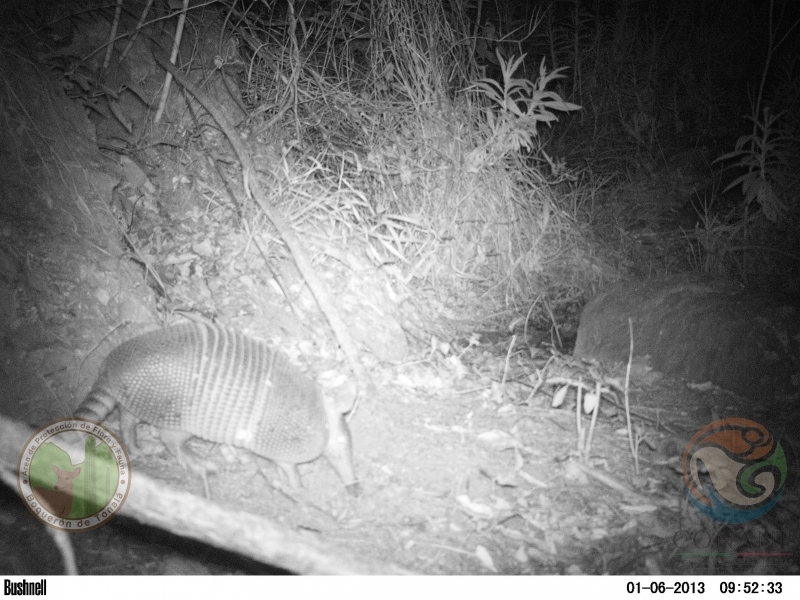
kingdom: Animalia
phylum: Chordata
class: Mammalia
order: Cingulata
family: Dasypodidae
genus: Dasypus
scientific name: Dasypus novemcinctus
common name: Nine-banded armadillo
